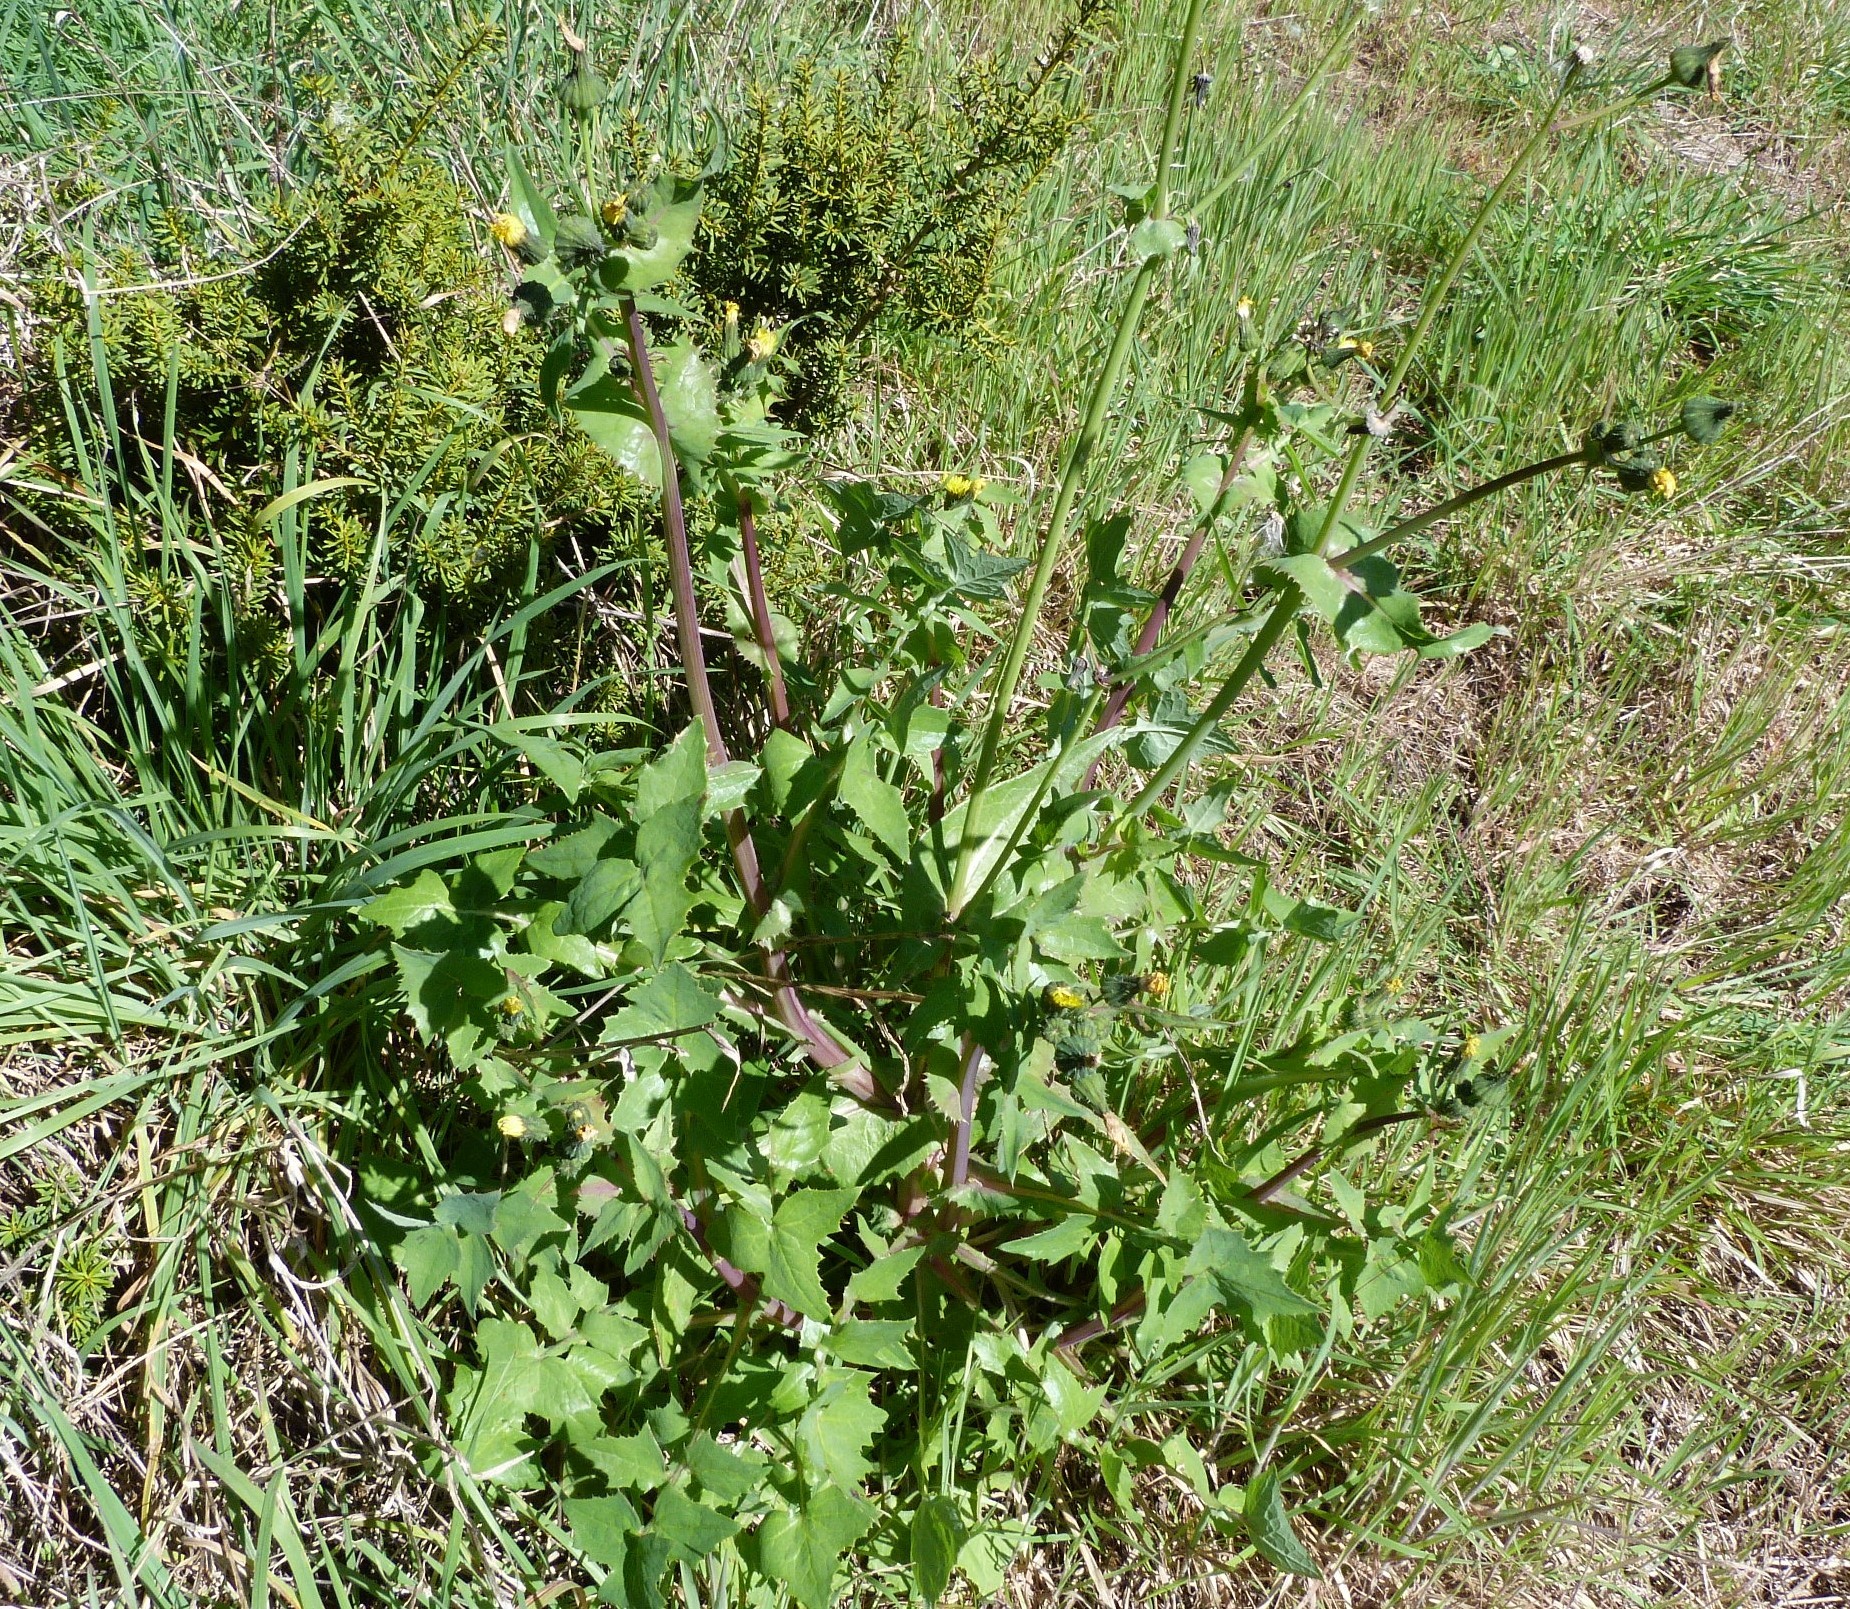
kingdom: Plantae
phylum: Tracheophyta
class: Magnoliopsida
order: Asterales
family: Asteraceae
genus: Sonchus
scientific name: Sonchus oleraceus
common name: Common sowthistle
